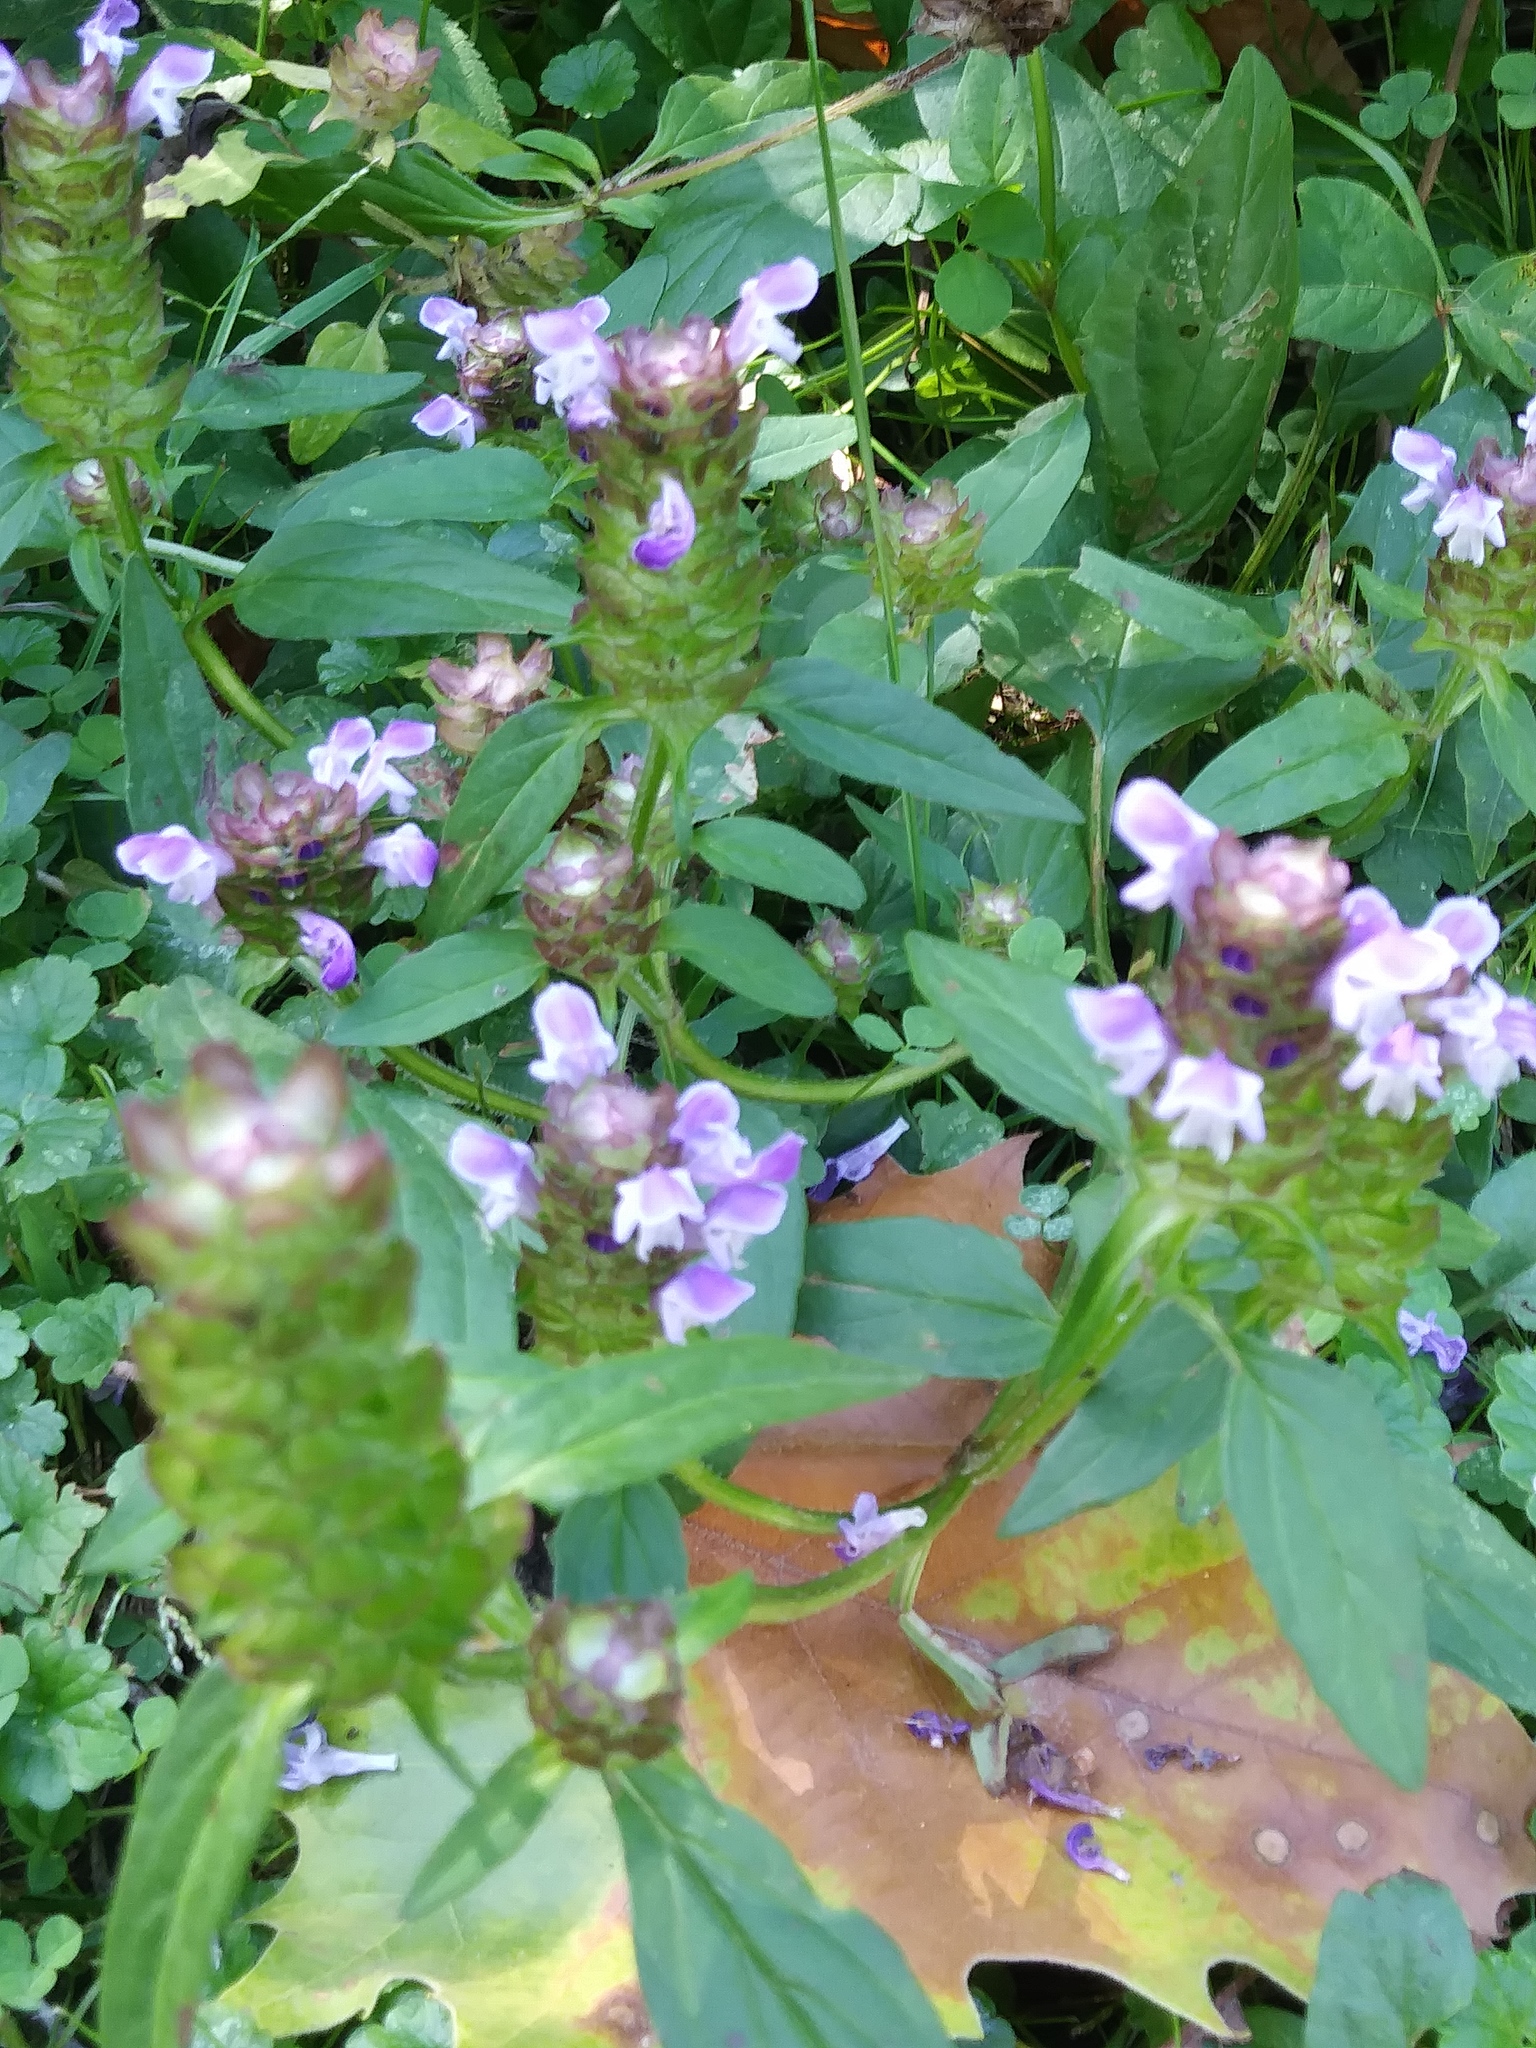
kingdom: Plantae
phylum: Tracheophyta
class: Magnoliopsida
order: Lamiales
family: Lamiaceae
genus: Prunella
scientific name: Prunella vulgaris
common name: Heal-all
